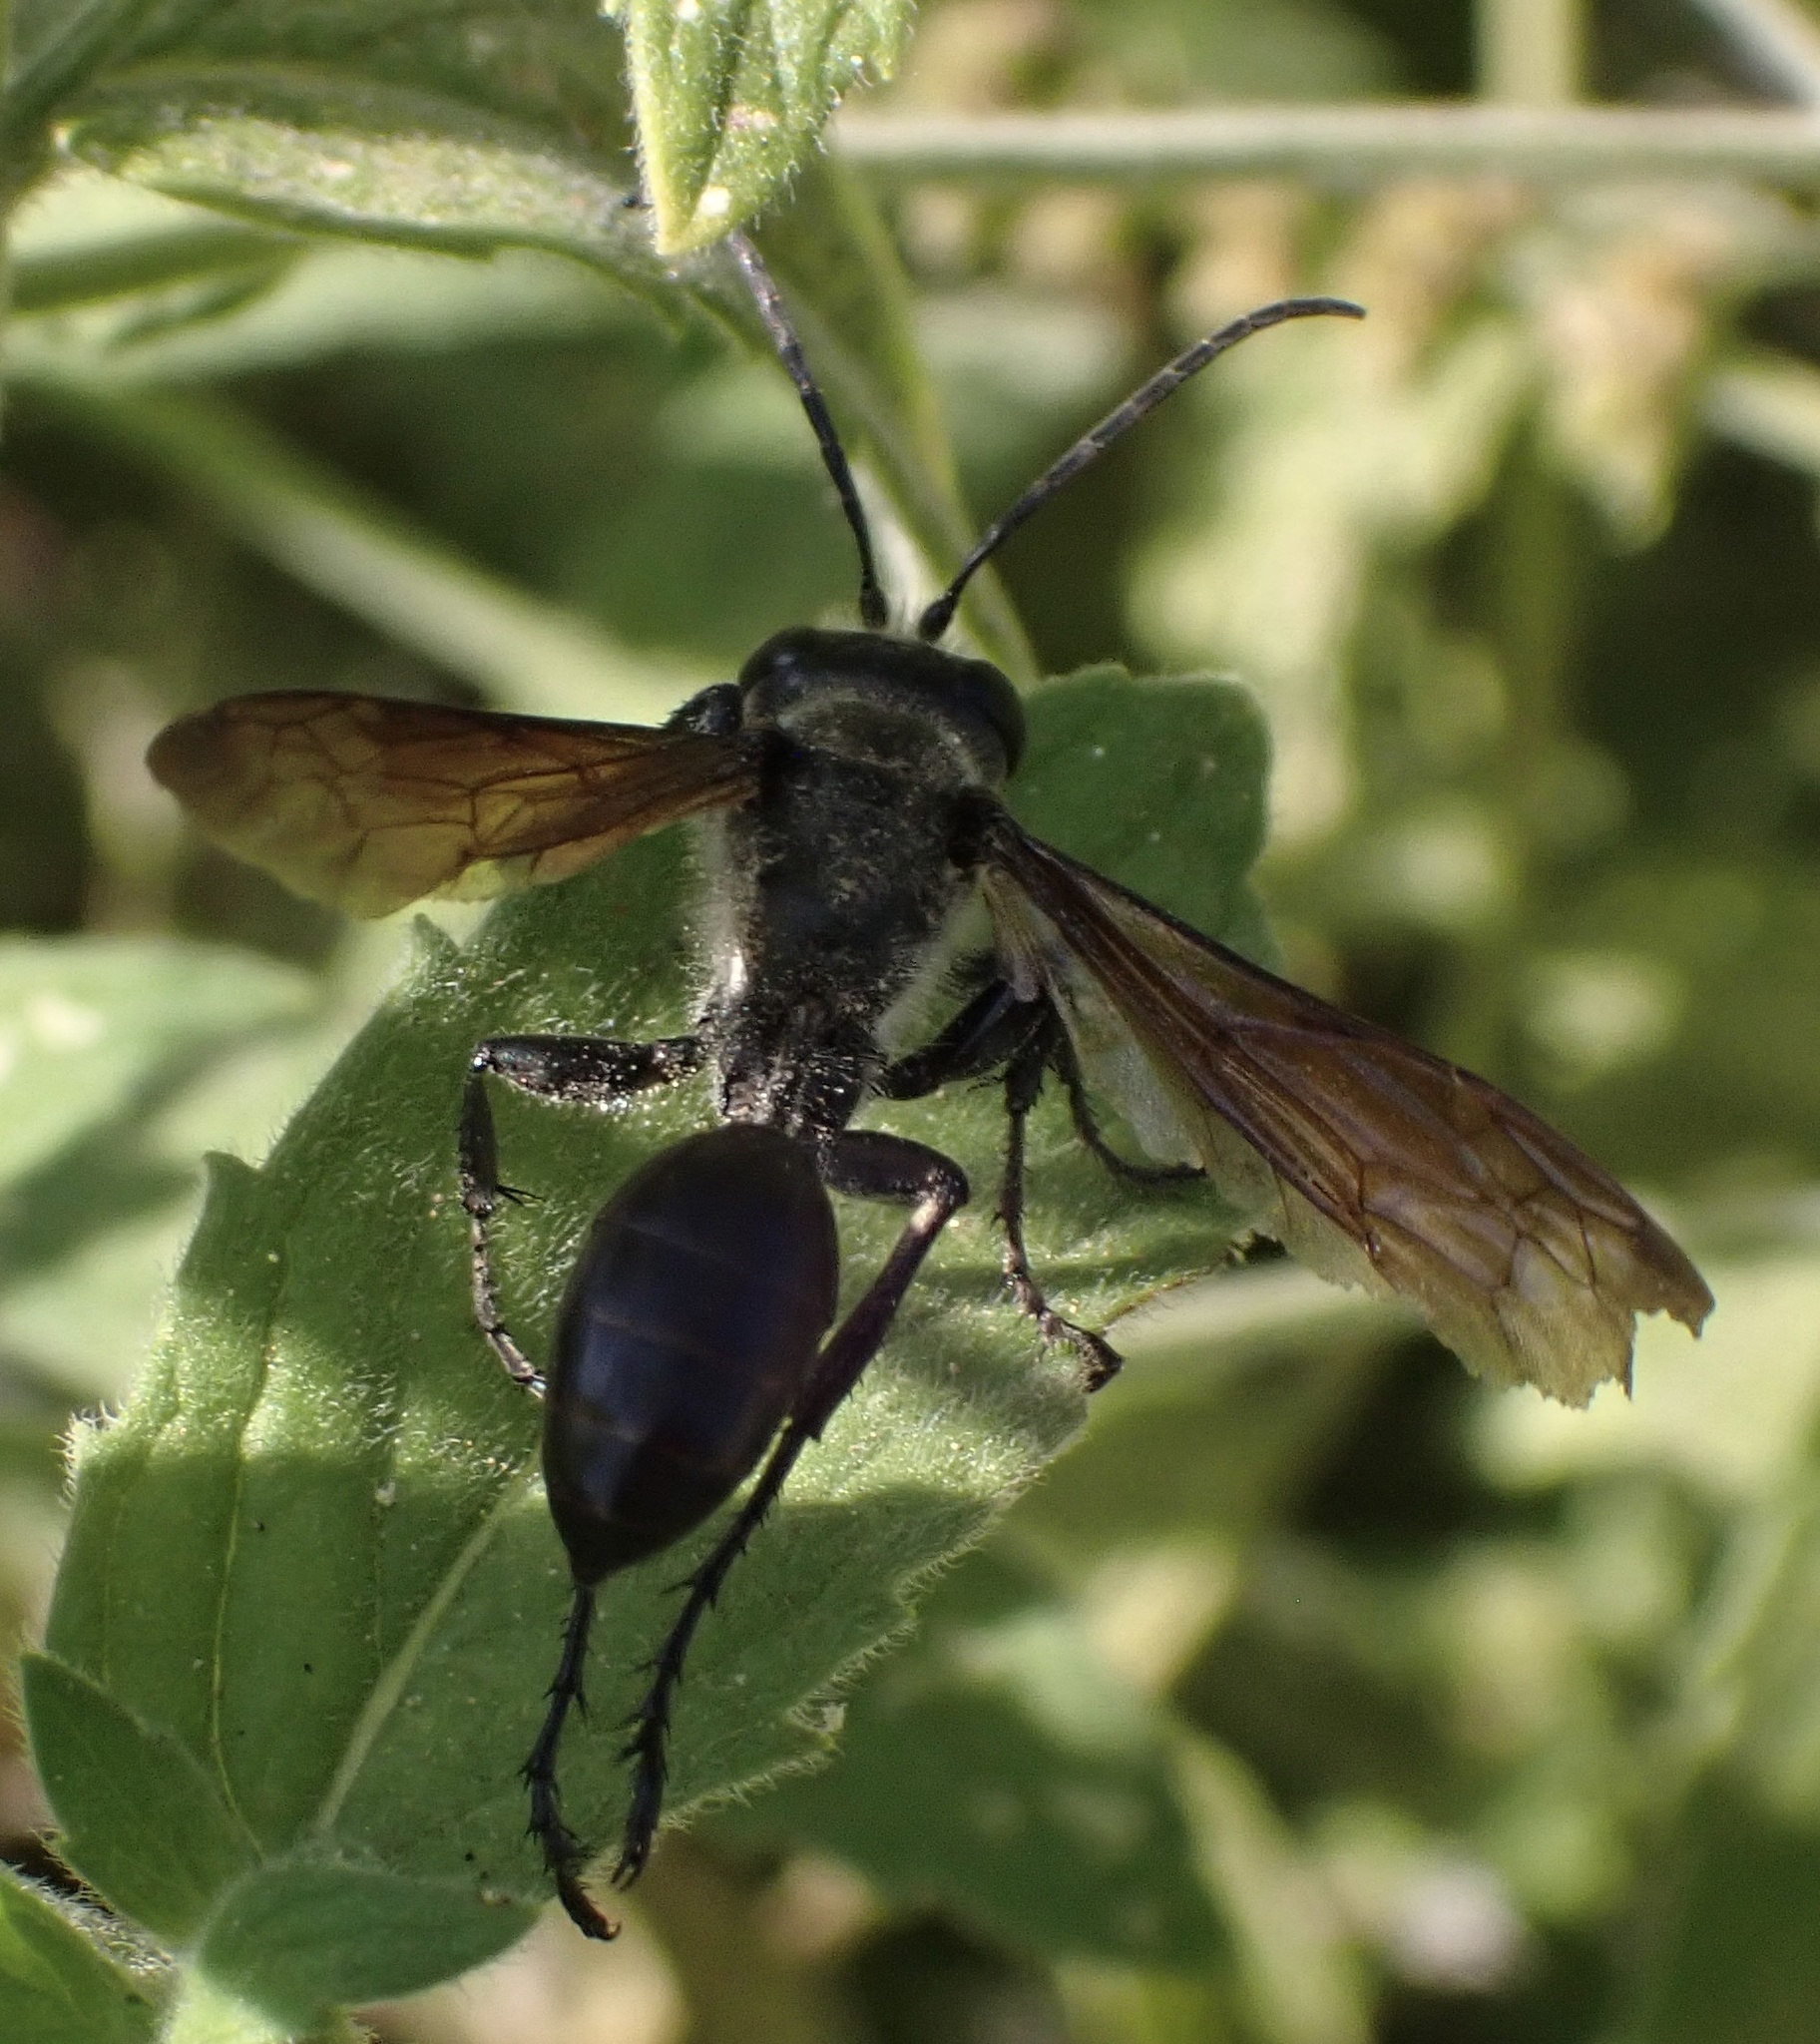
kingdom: Animalia
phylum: Arthropoda
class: Insecta
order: Hymenoptera
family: Sphecidae
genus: Isodontia
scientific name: Isodontia mexicana
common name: Mud dauber
